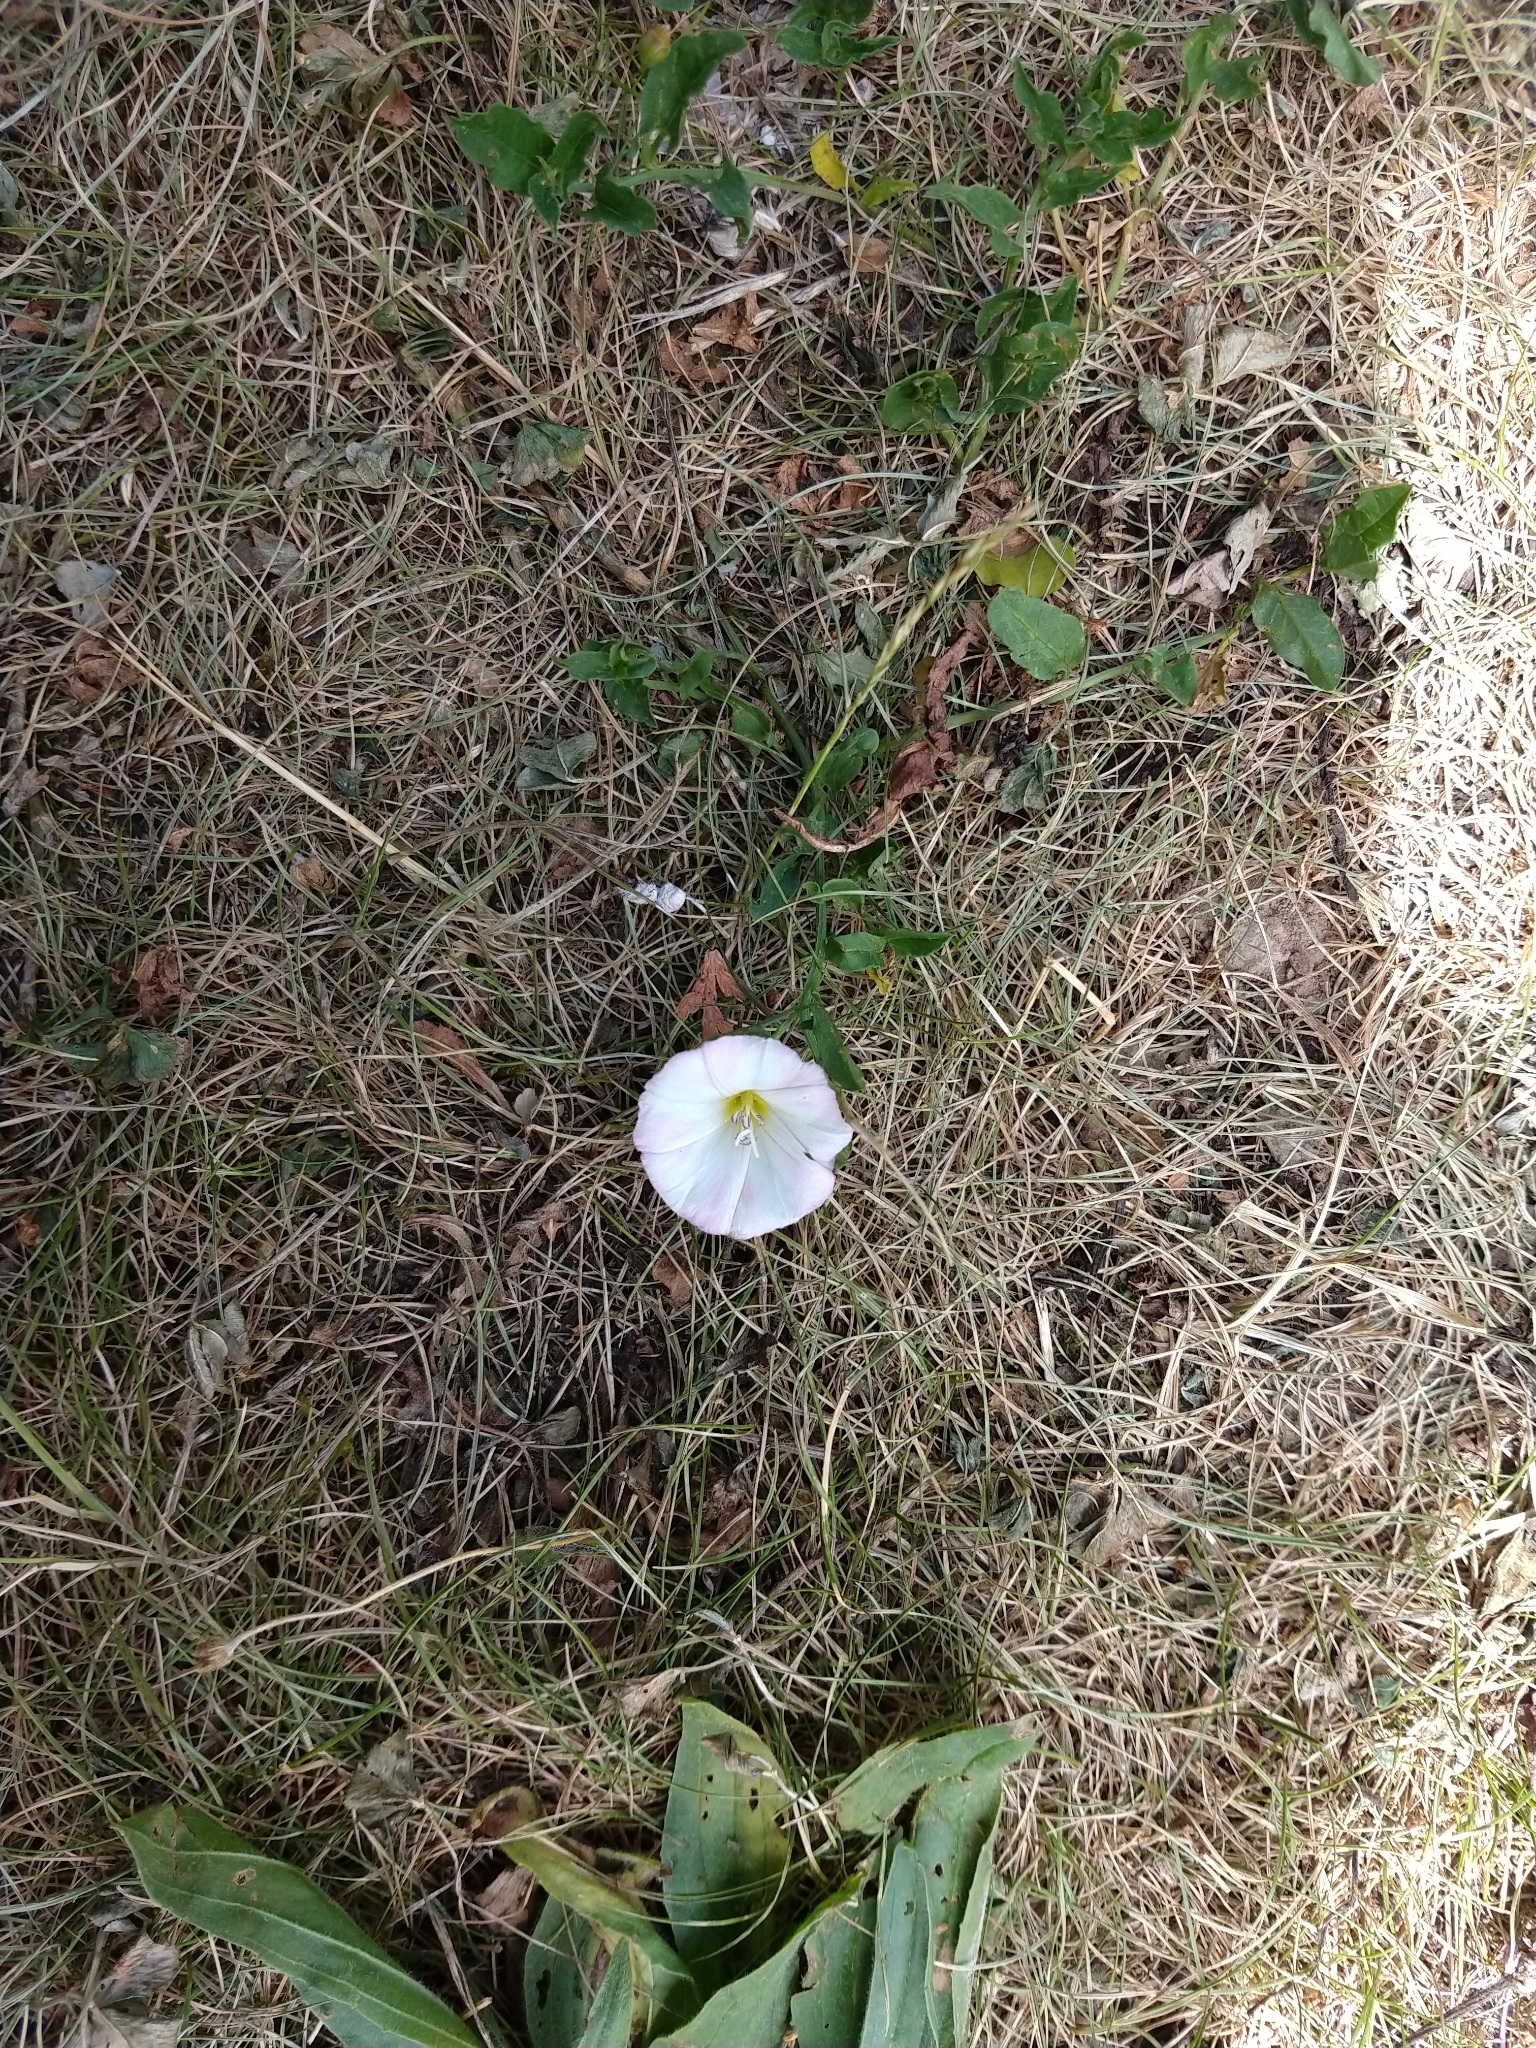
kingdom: Plantae
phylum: Tracheophyta
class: Magnoliopsida
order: Solanales
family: Convolvulaceae
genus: Convolvulus
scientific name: Convolvulus arvensis
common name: Field bindweed
